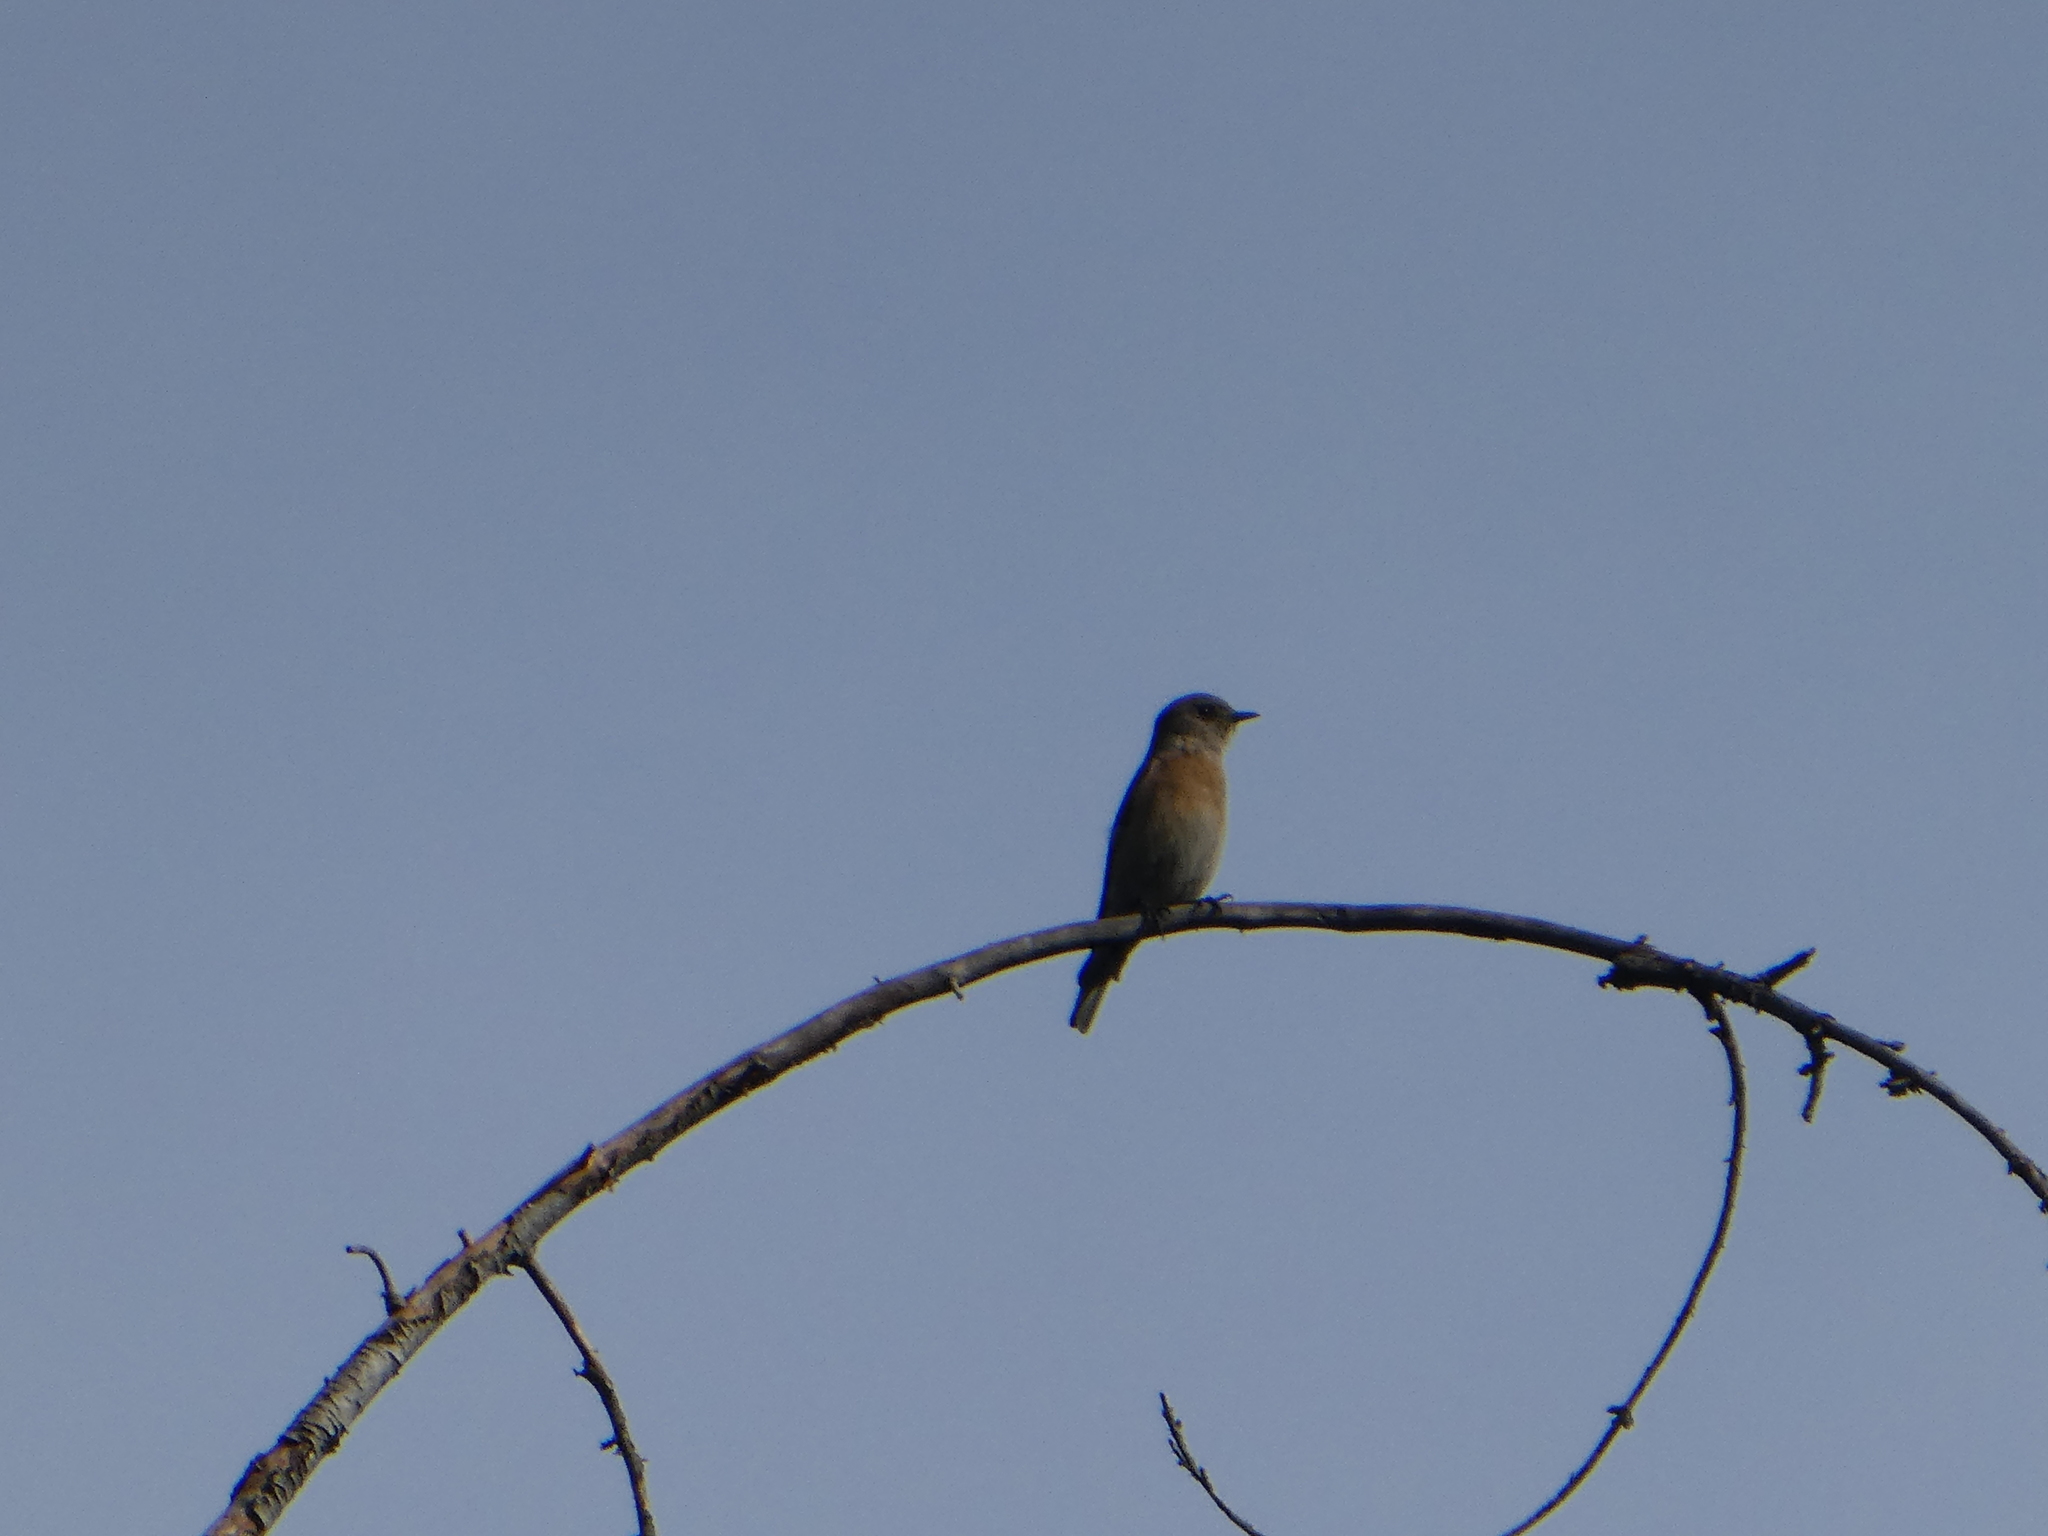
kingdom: Animalia
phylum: Chordata
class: Aves
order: Passeriformes
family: Turdidae
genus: Sialia
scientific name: Sialia mexicana
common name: Western bluebird
